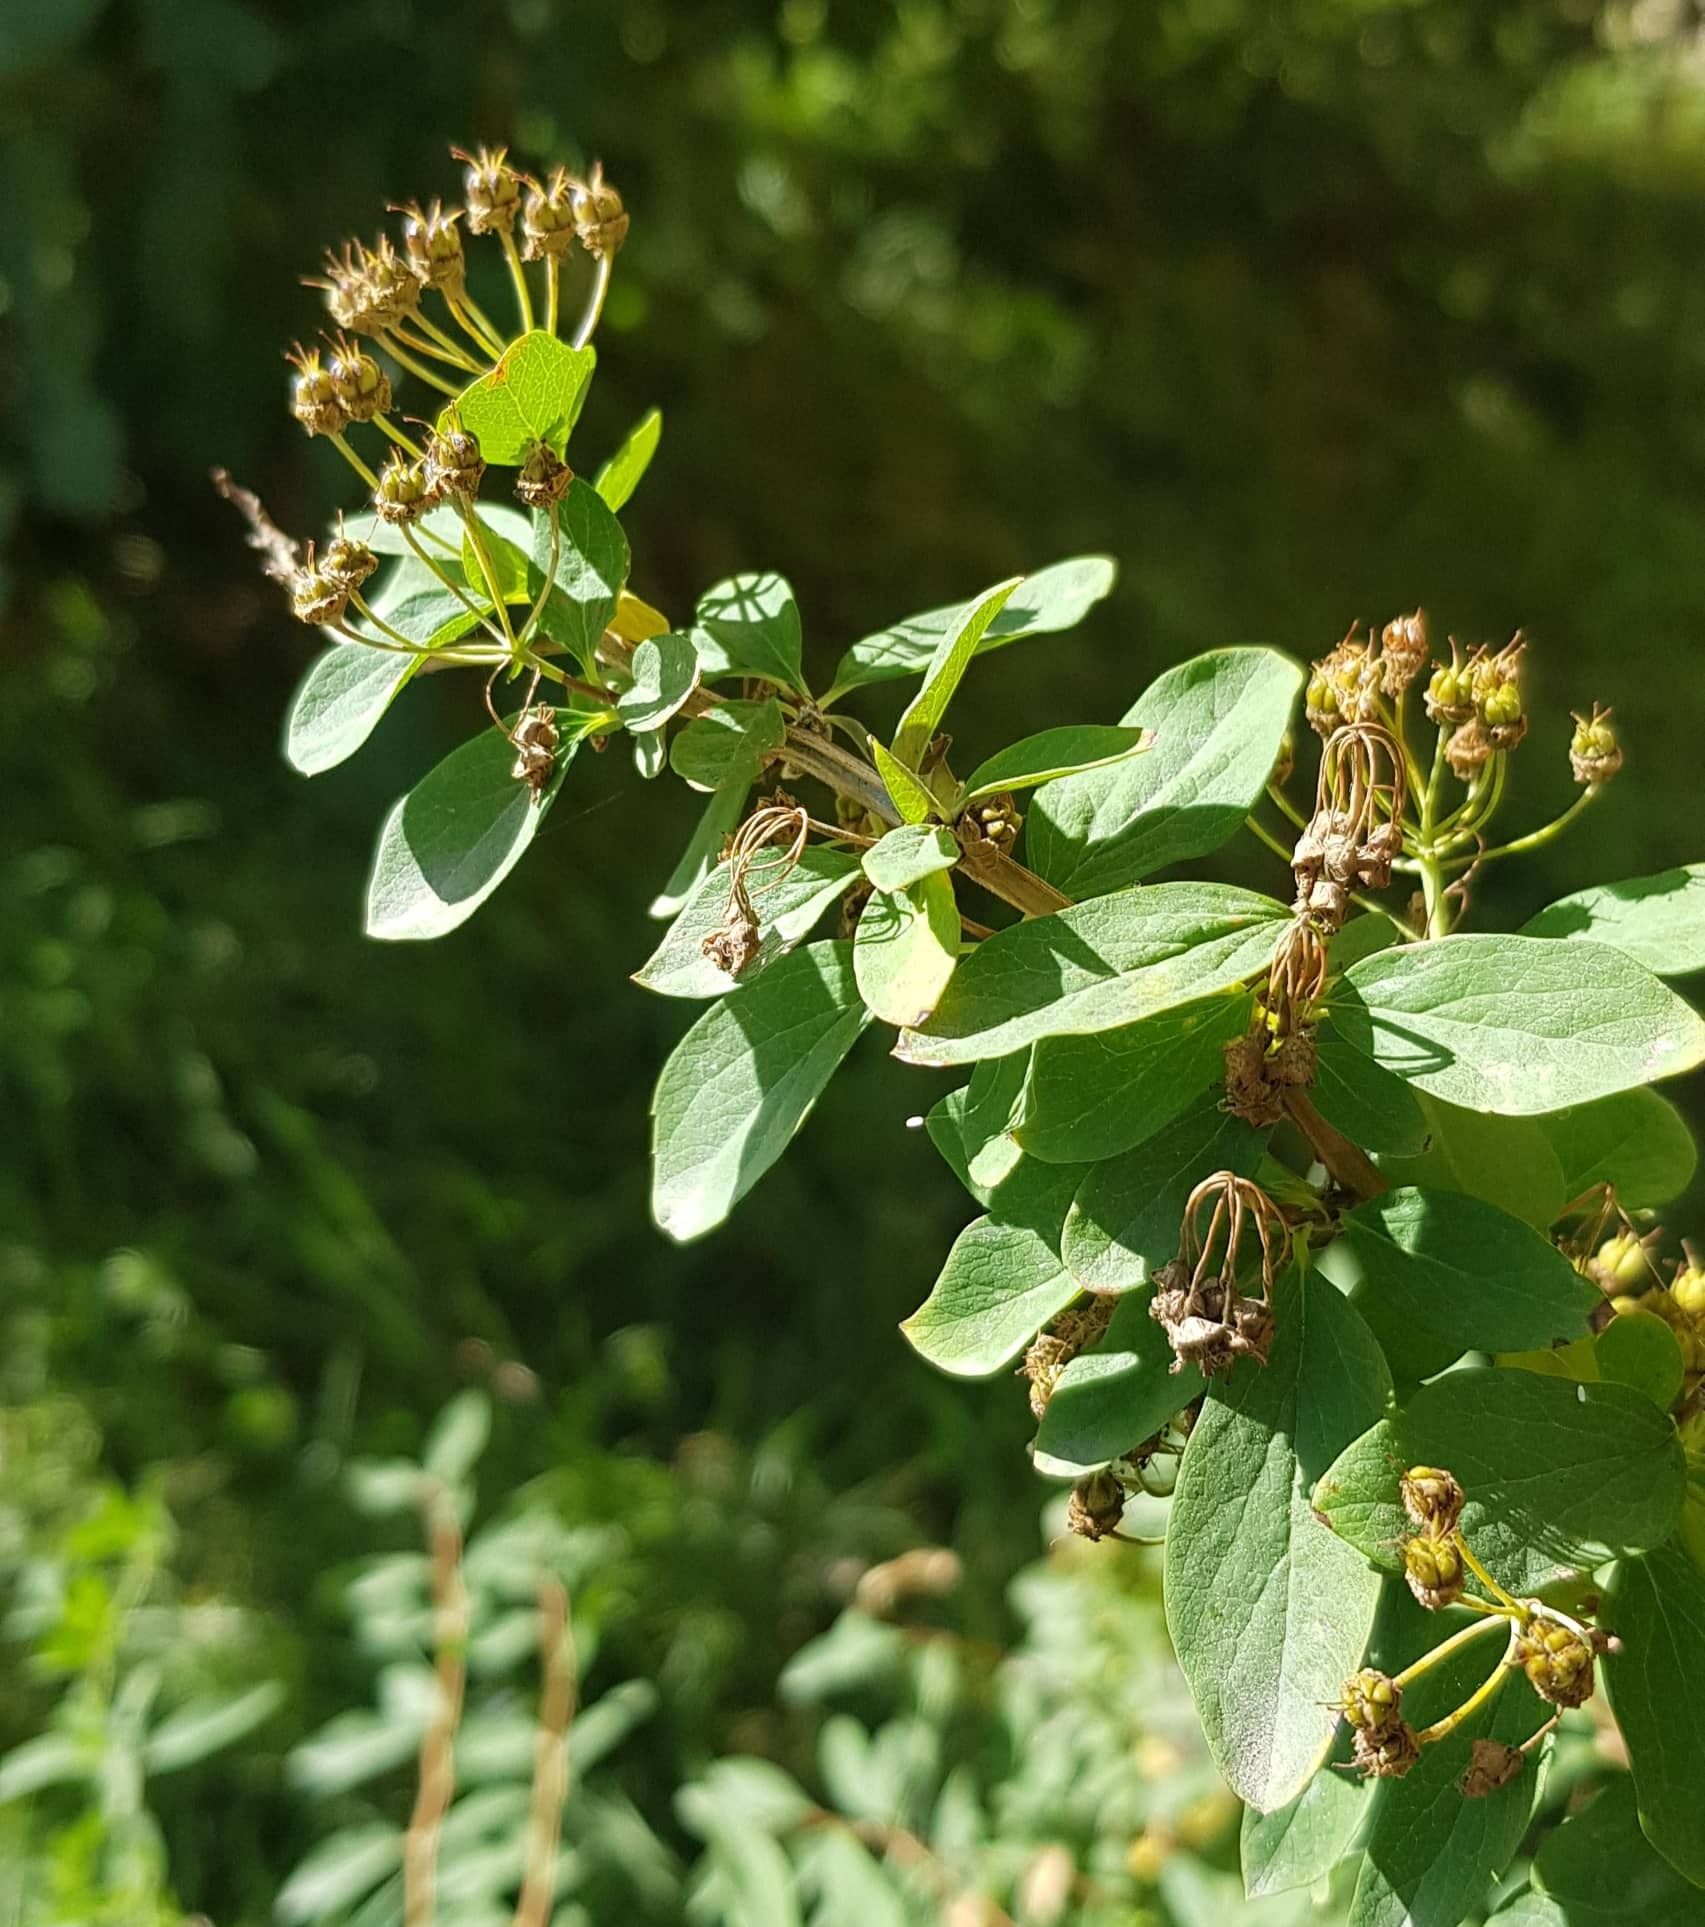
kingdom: Plantae
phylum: Tracheophyta
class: Magnoliopsida
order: Rosales
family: Rosaceae
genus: Spiraea
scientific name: Spiraea media
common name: Russian spiraea
